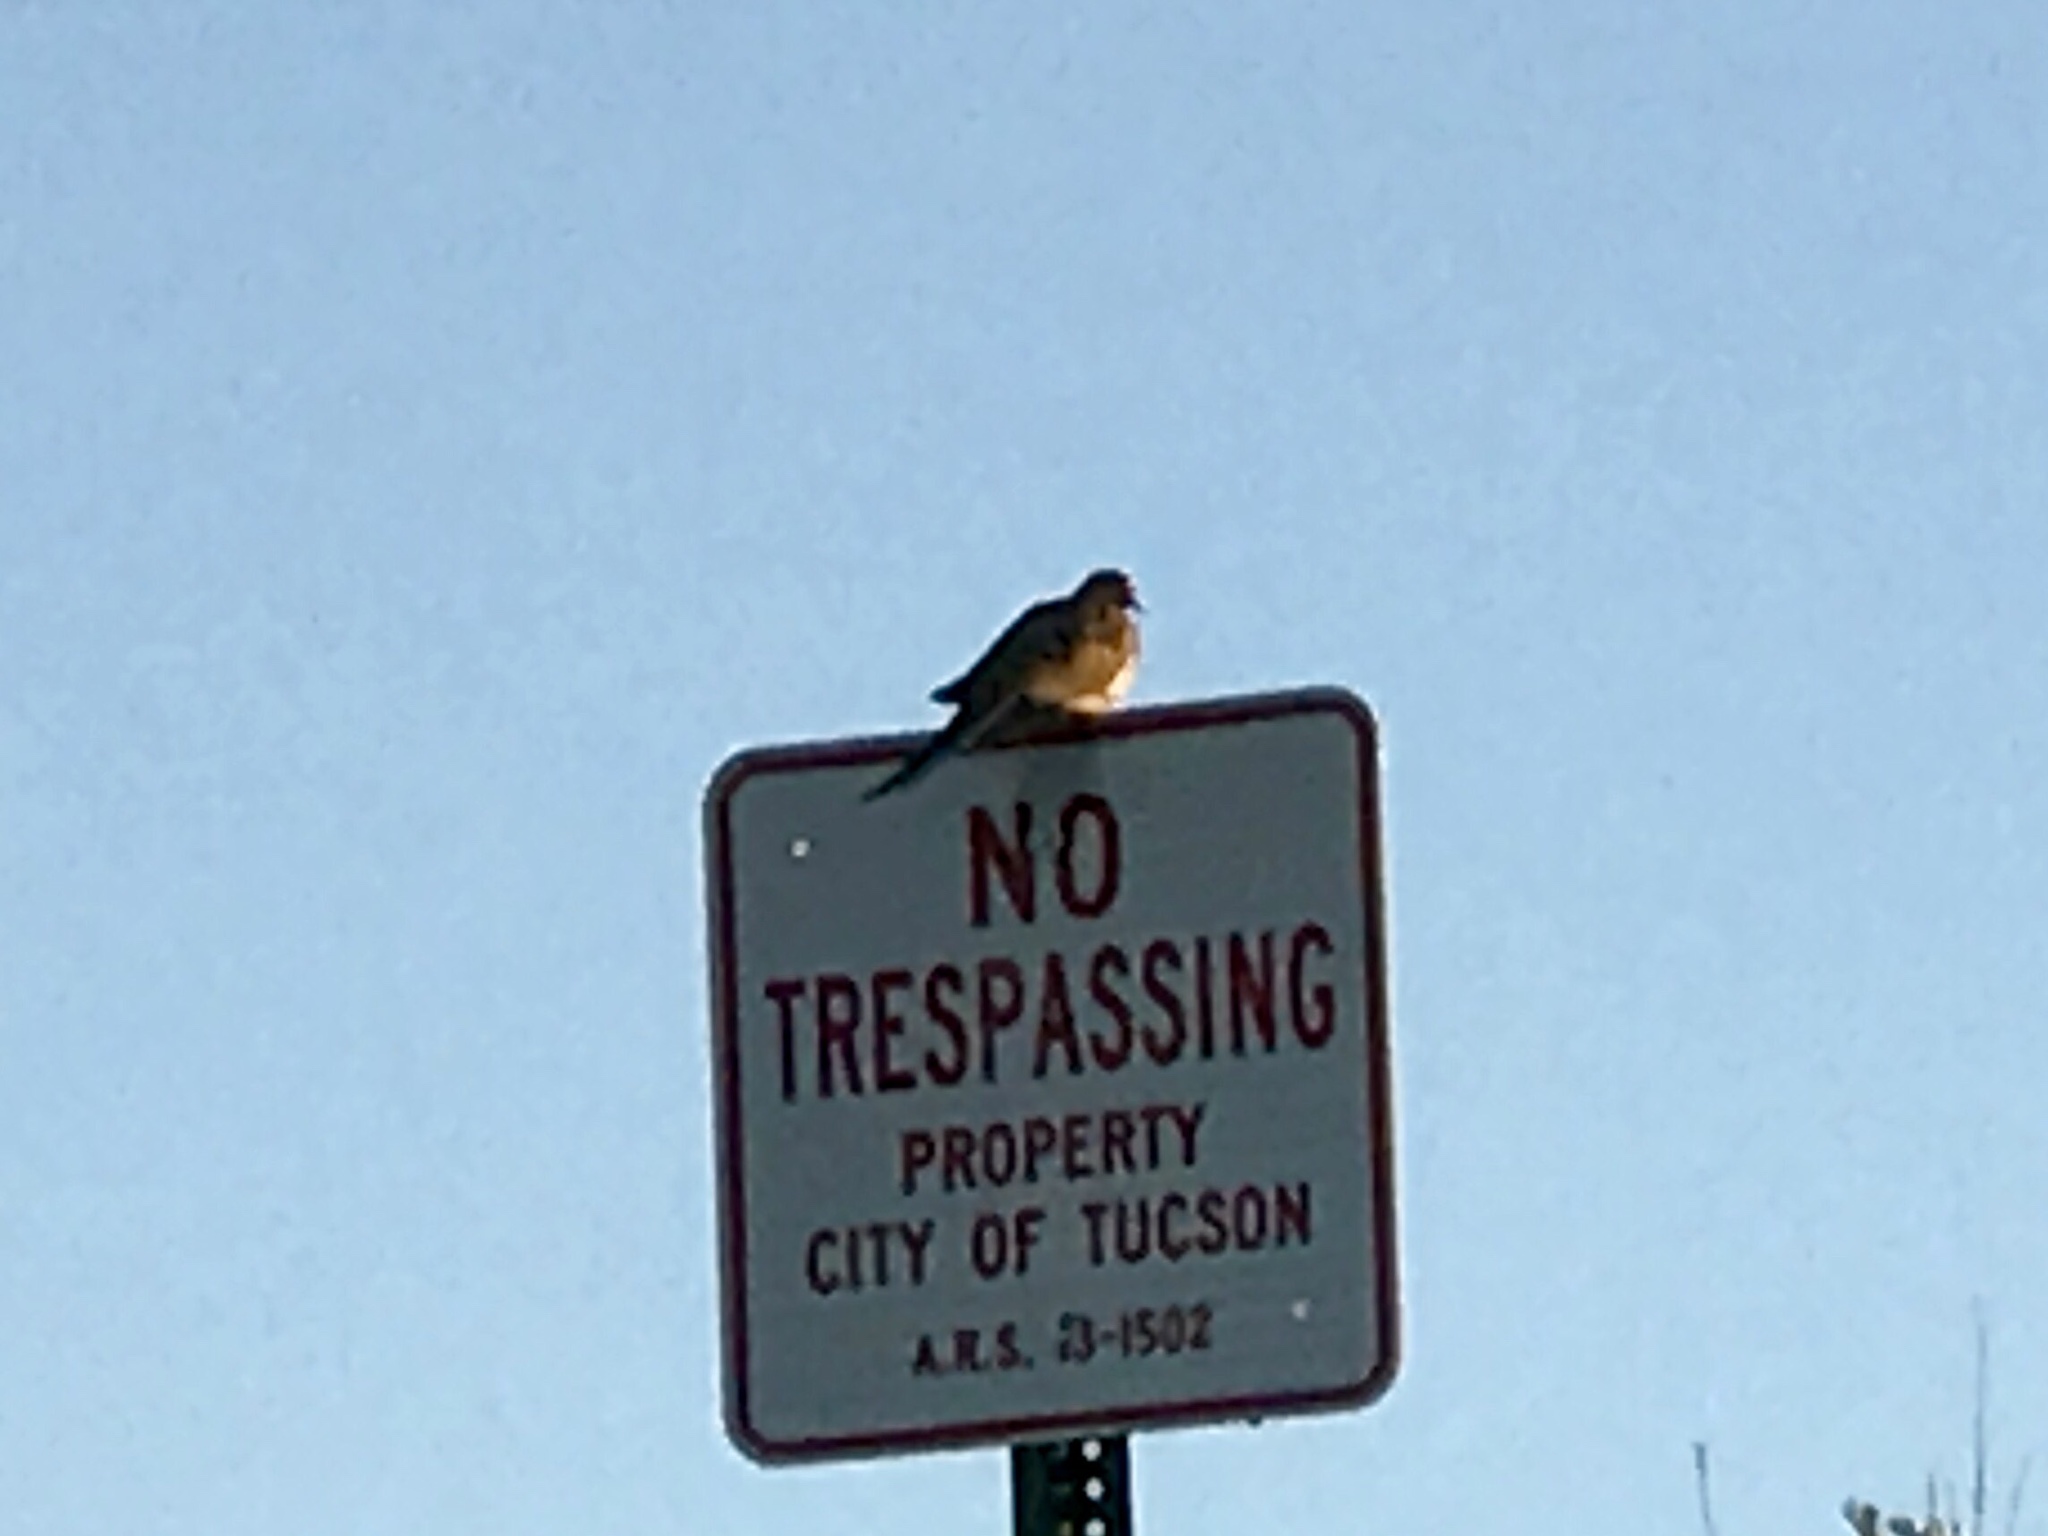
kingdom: Animalia
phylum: Chordata
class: Aves
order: Columbiformes
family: Columbidae
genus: Zenaida
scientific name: Zenaida macroura
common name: Mourning dove
